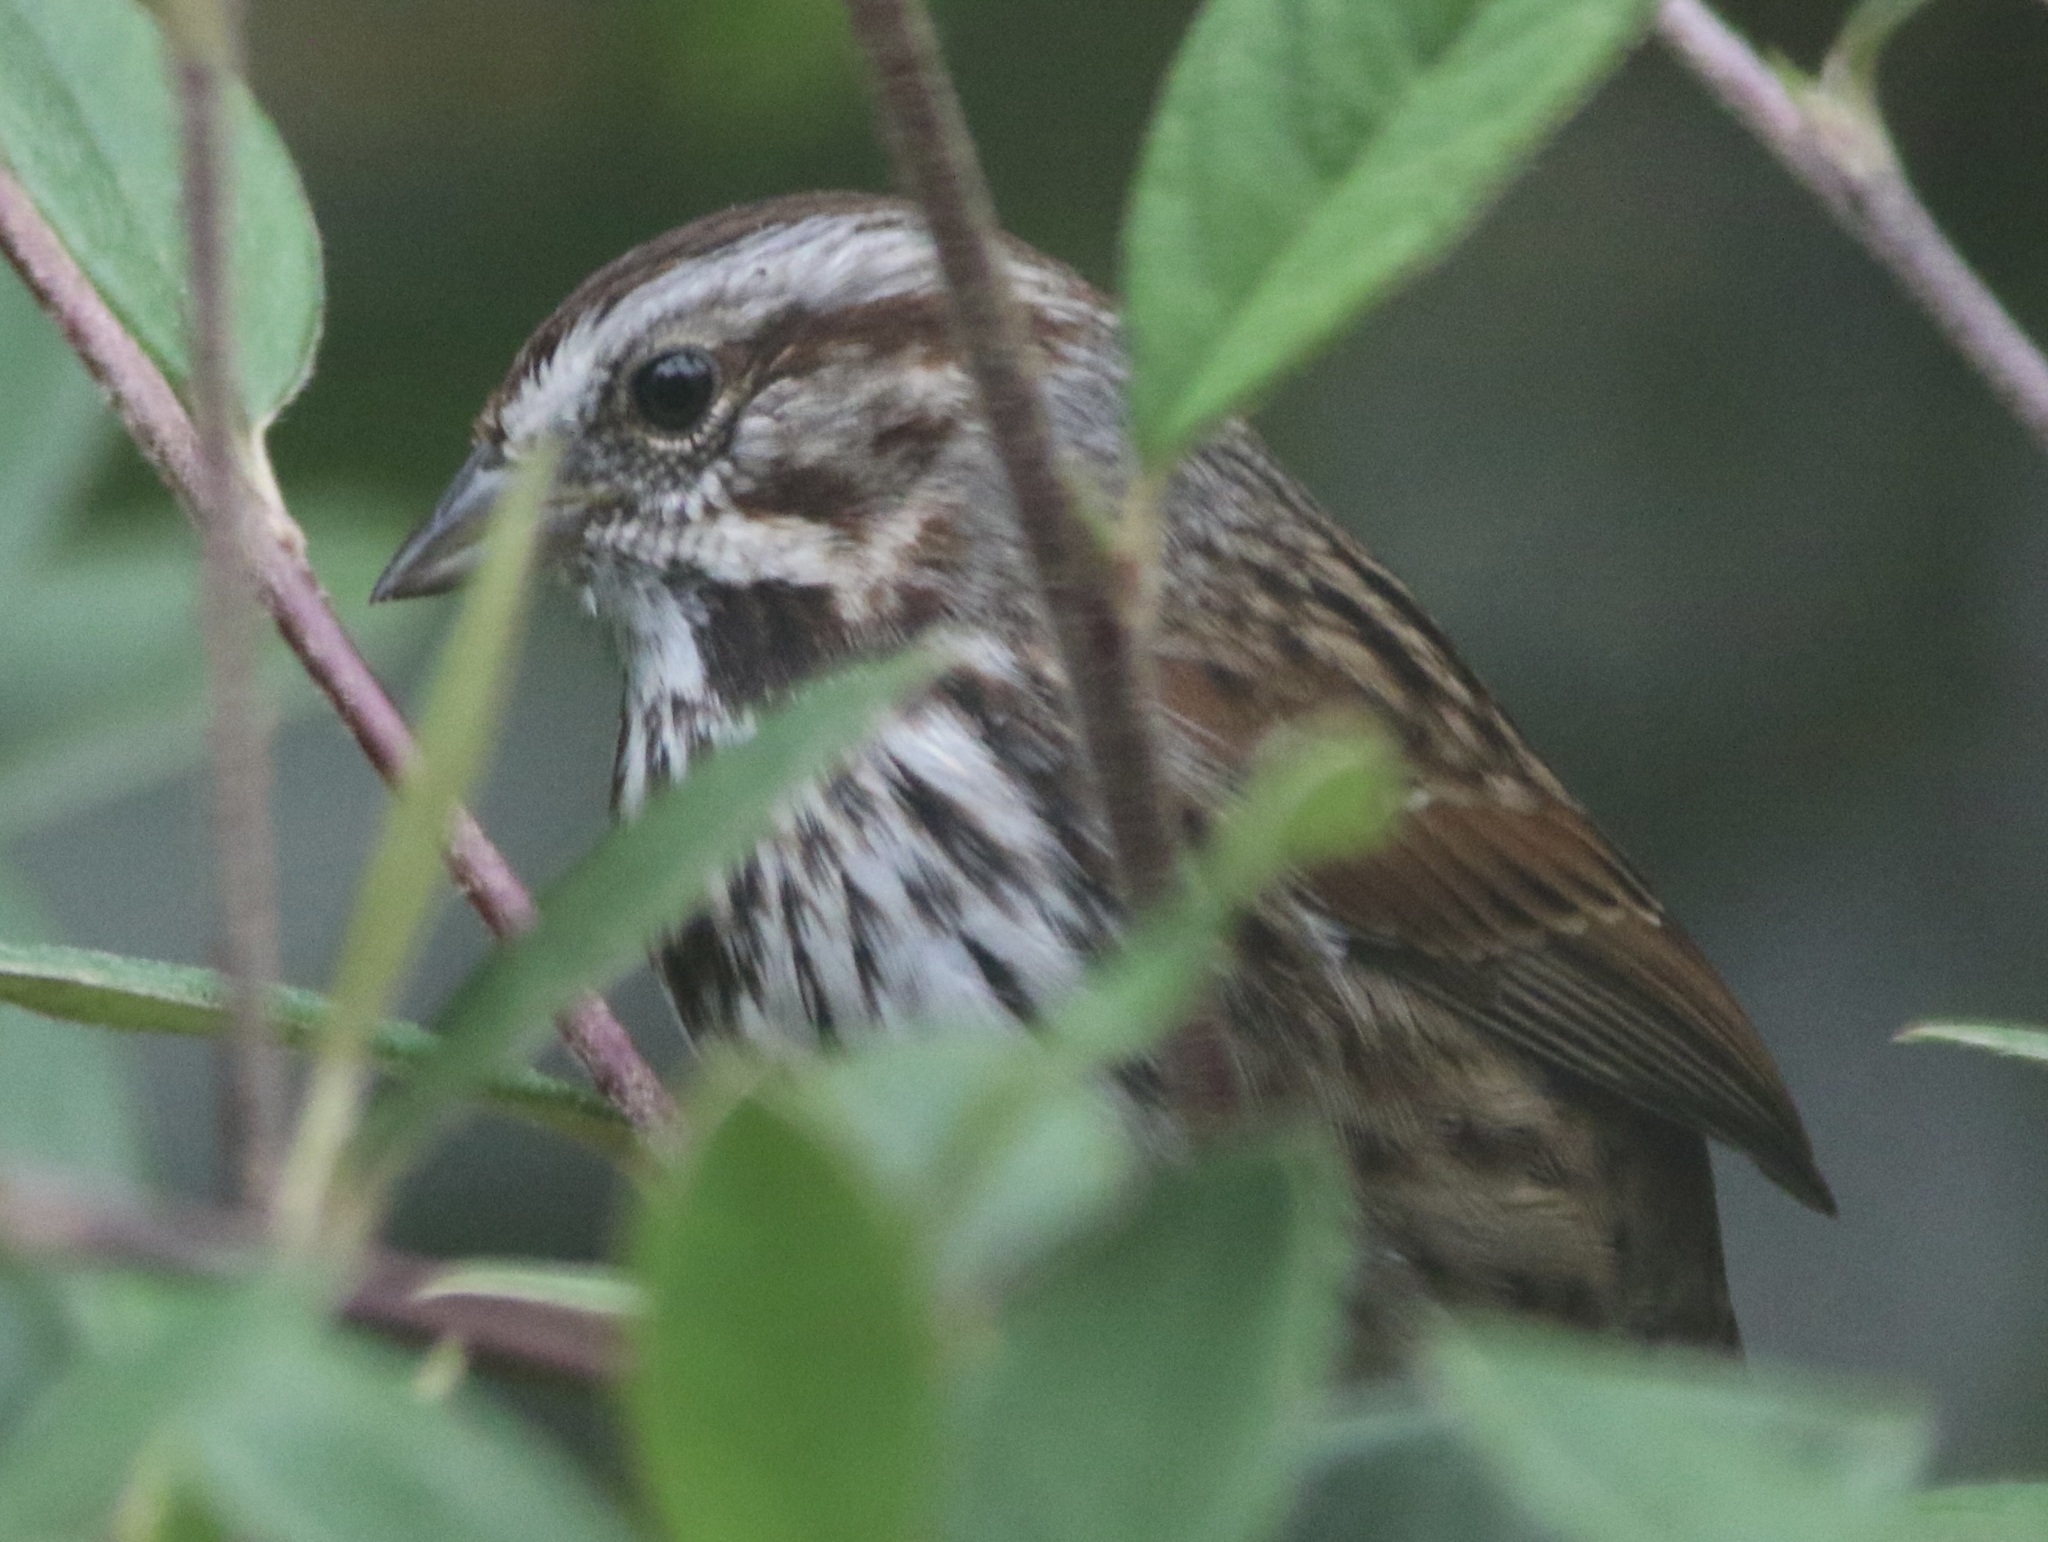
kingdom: Animalia
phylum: Chordata
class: Aves
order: Passeriformes
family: Passerellidae
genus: Melospiza
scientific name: Melospiza melodia
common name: Song sparrow
